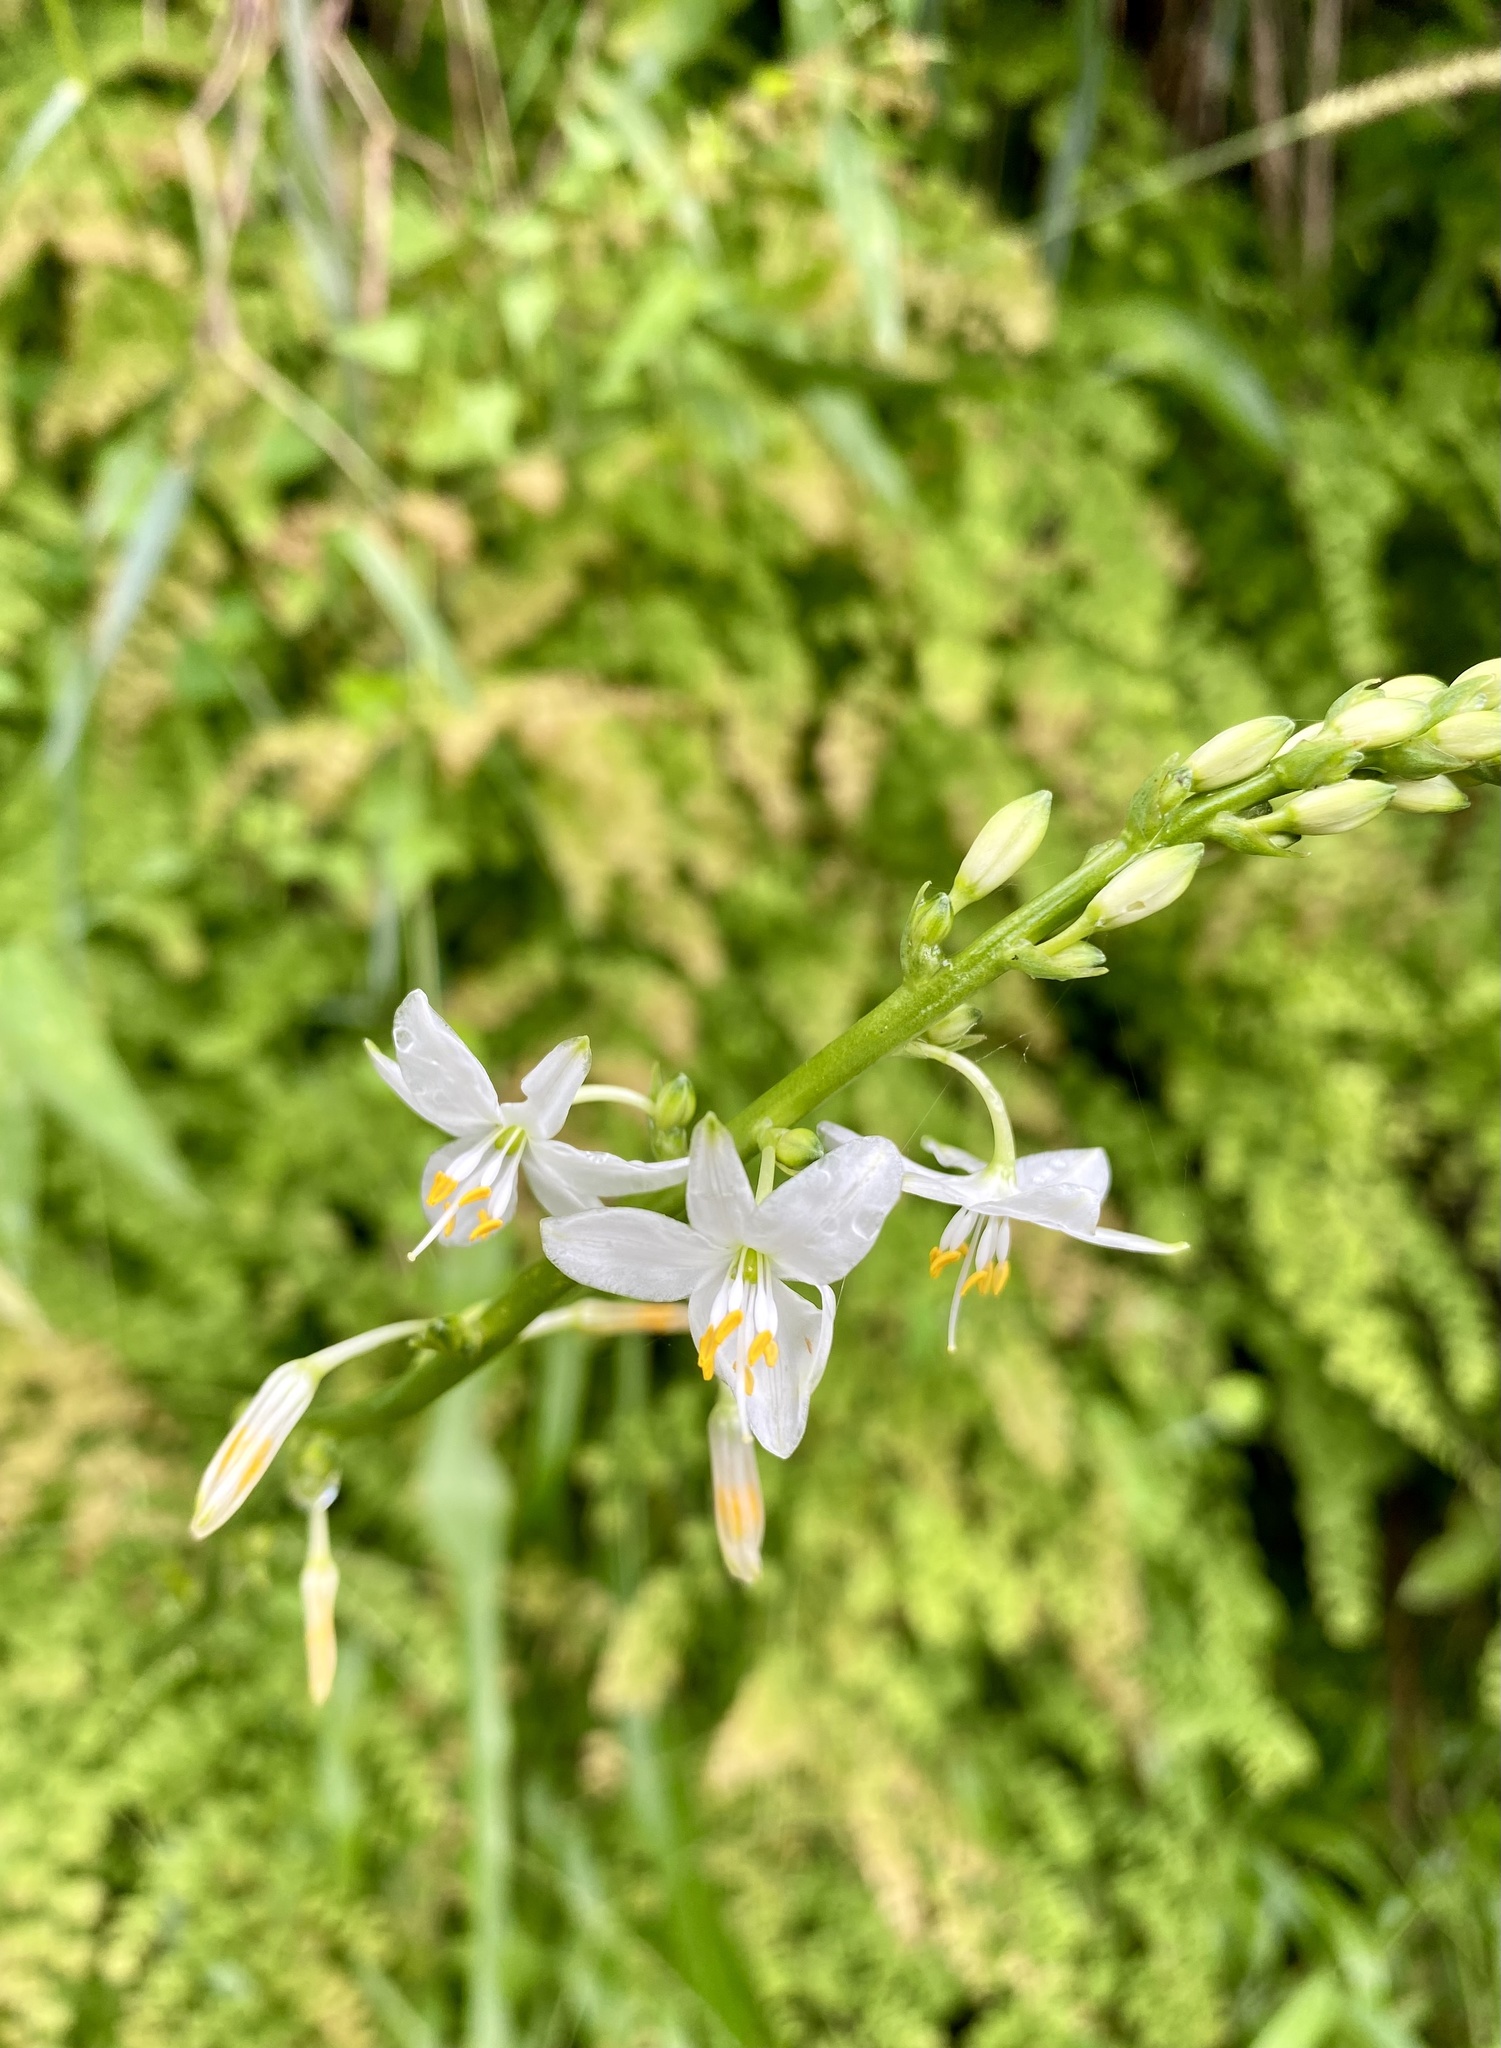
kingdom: Plantae
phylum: Tracheophyta
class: Liliopsida
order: Asparagales
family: Asparagaceae
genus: Trihesperus
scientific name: Trihesperus glaucus
